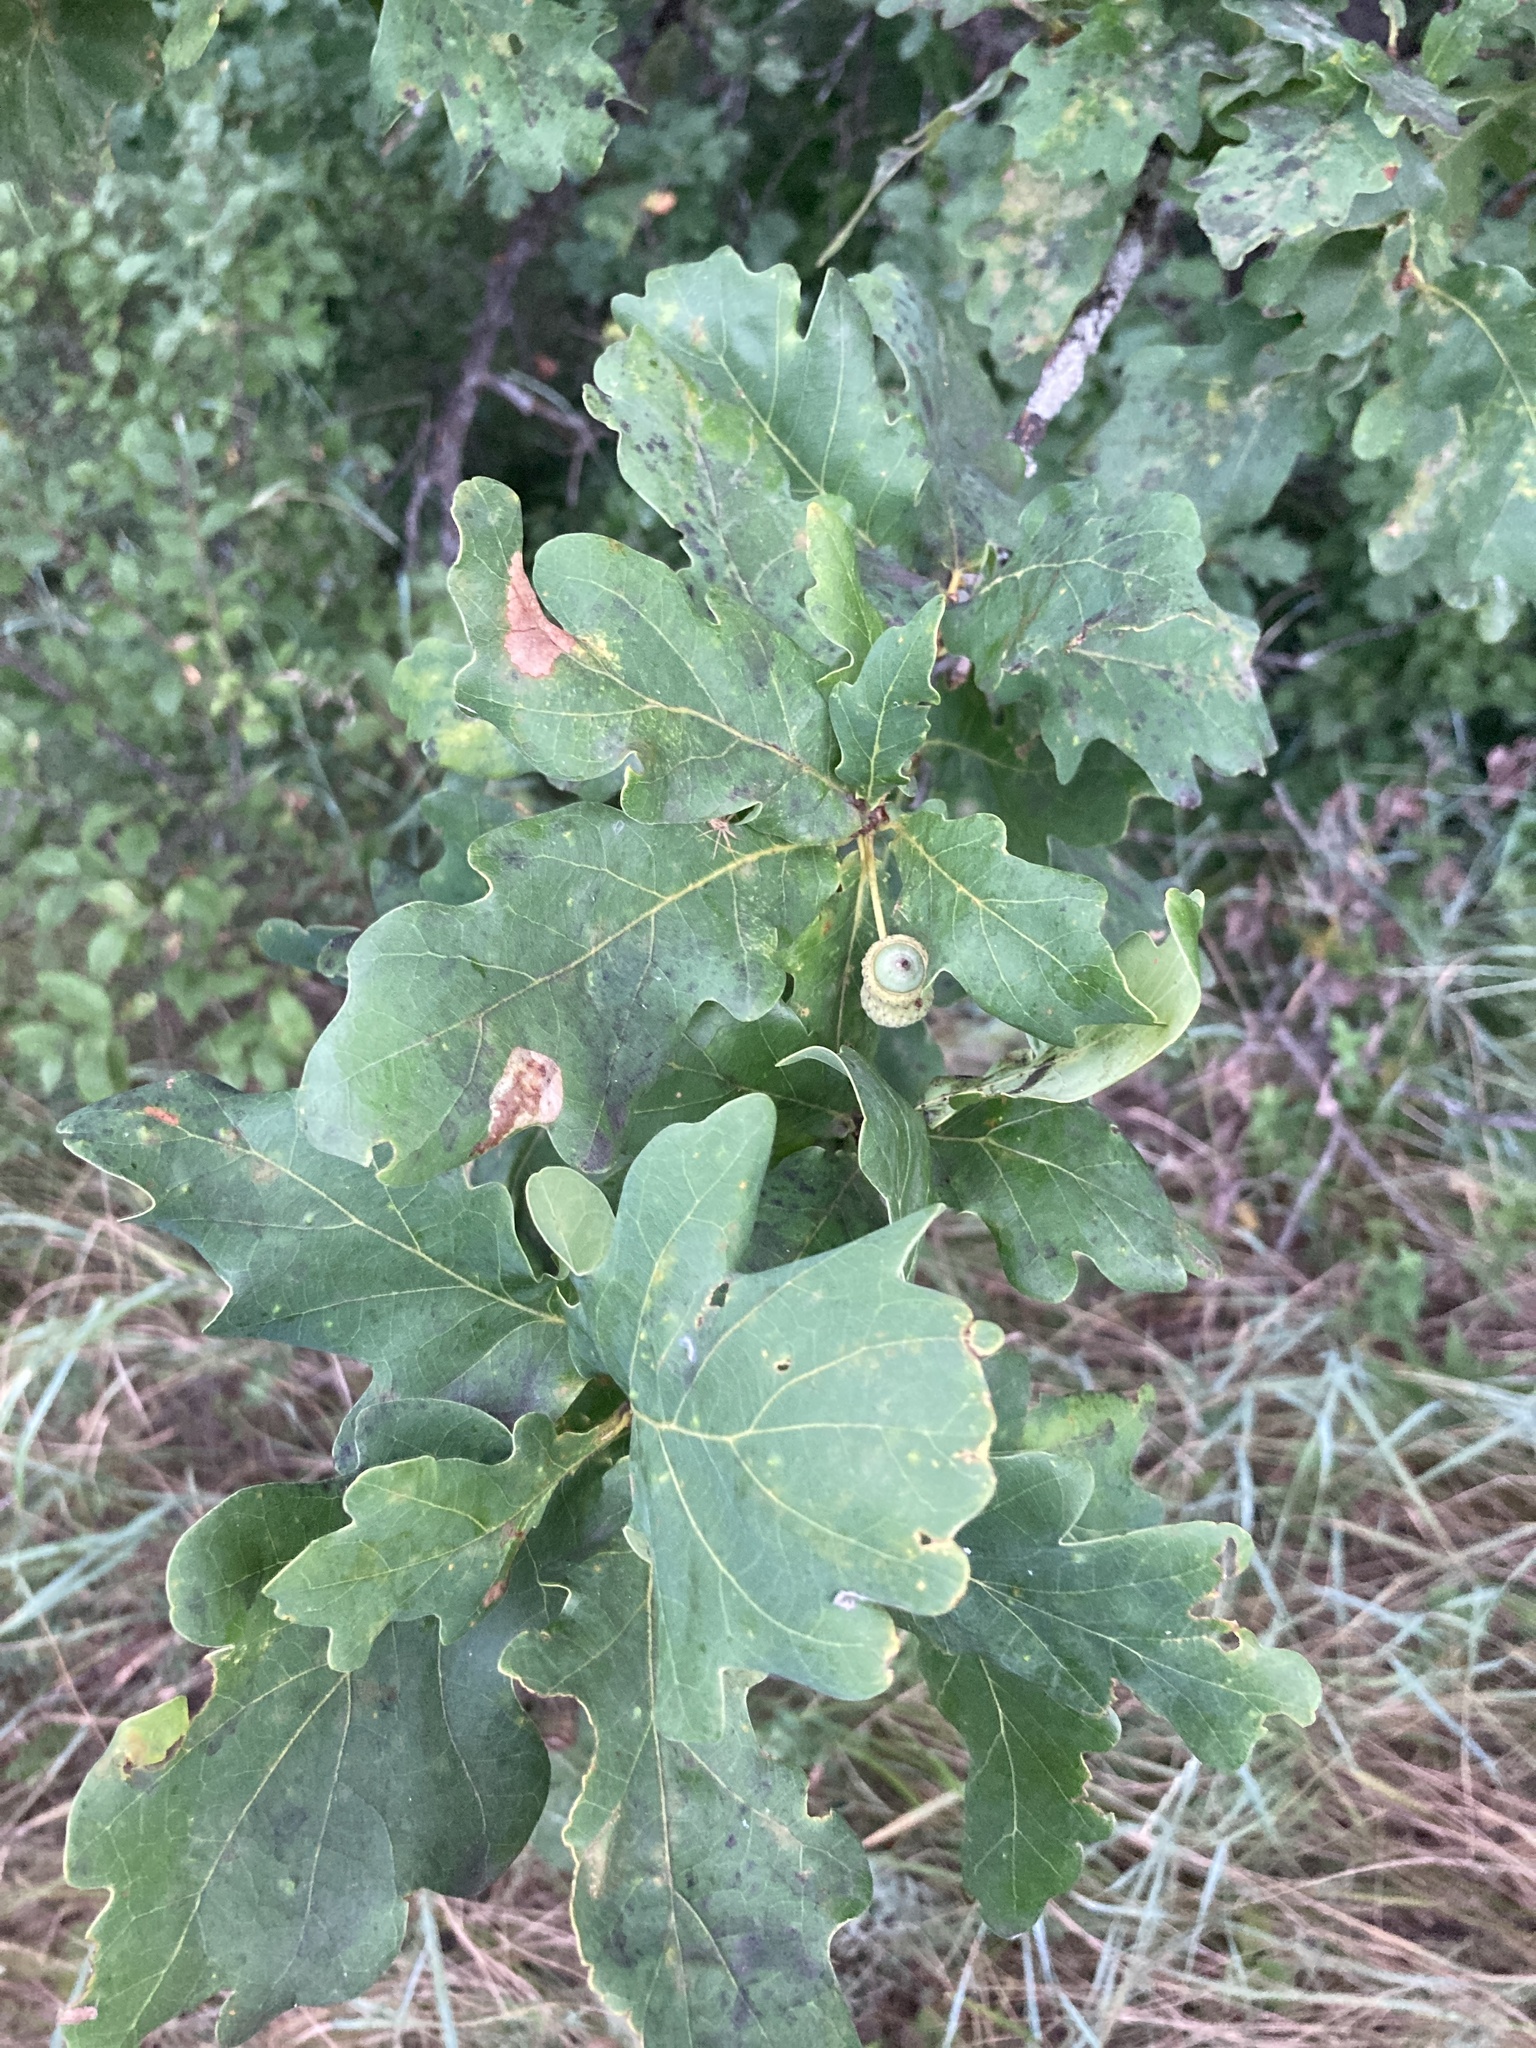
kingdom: Plantae
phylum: Tracheophyta
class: Magnoliopsida
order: Fagales
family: Fagaceae
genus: Quercus
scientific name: Quercus robur
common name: Pedunculate oak
